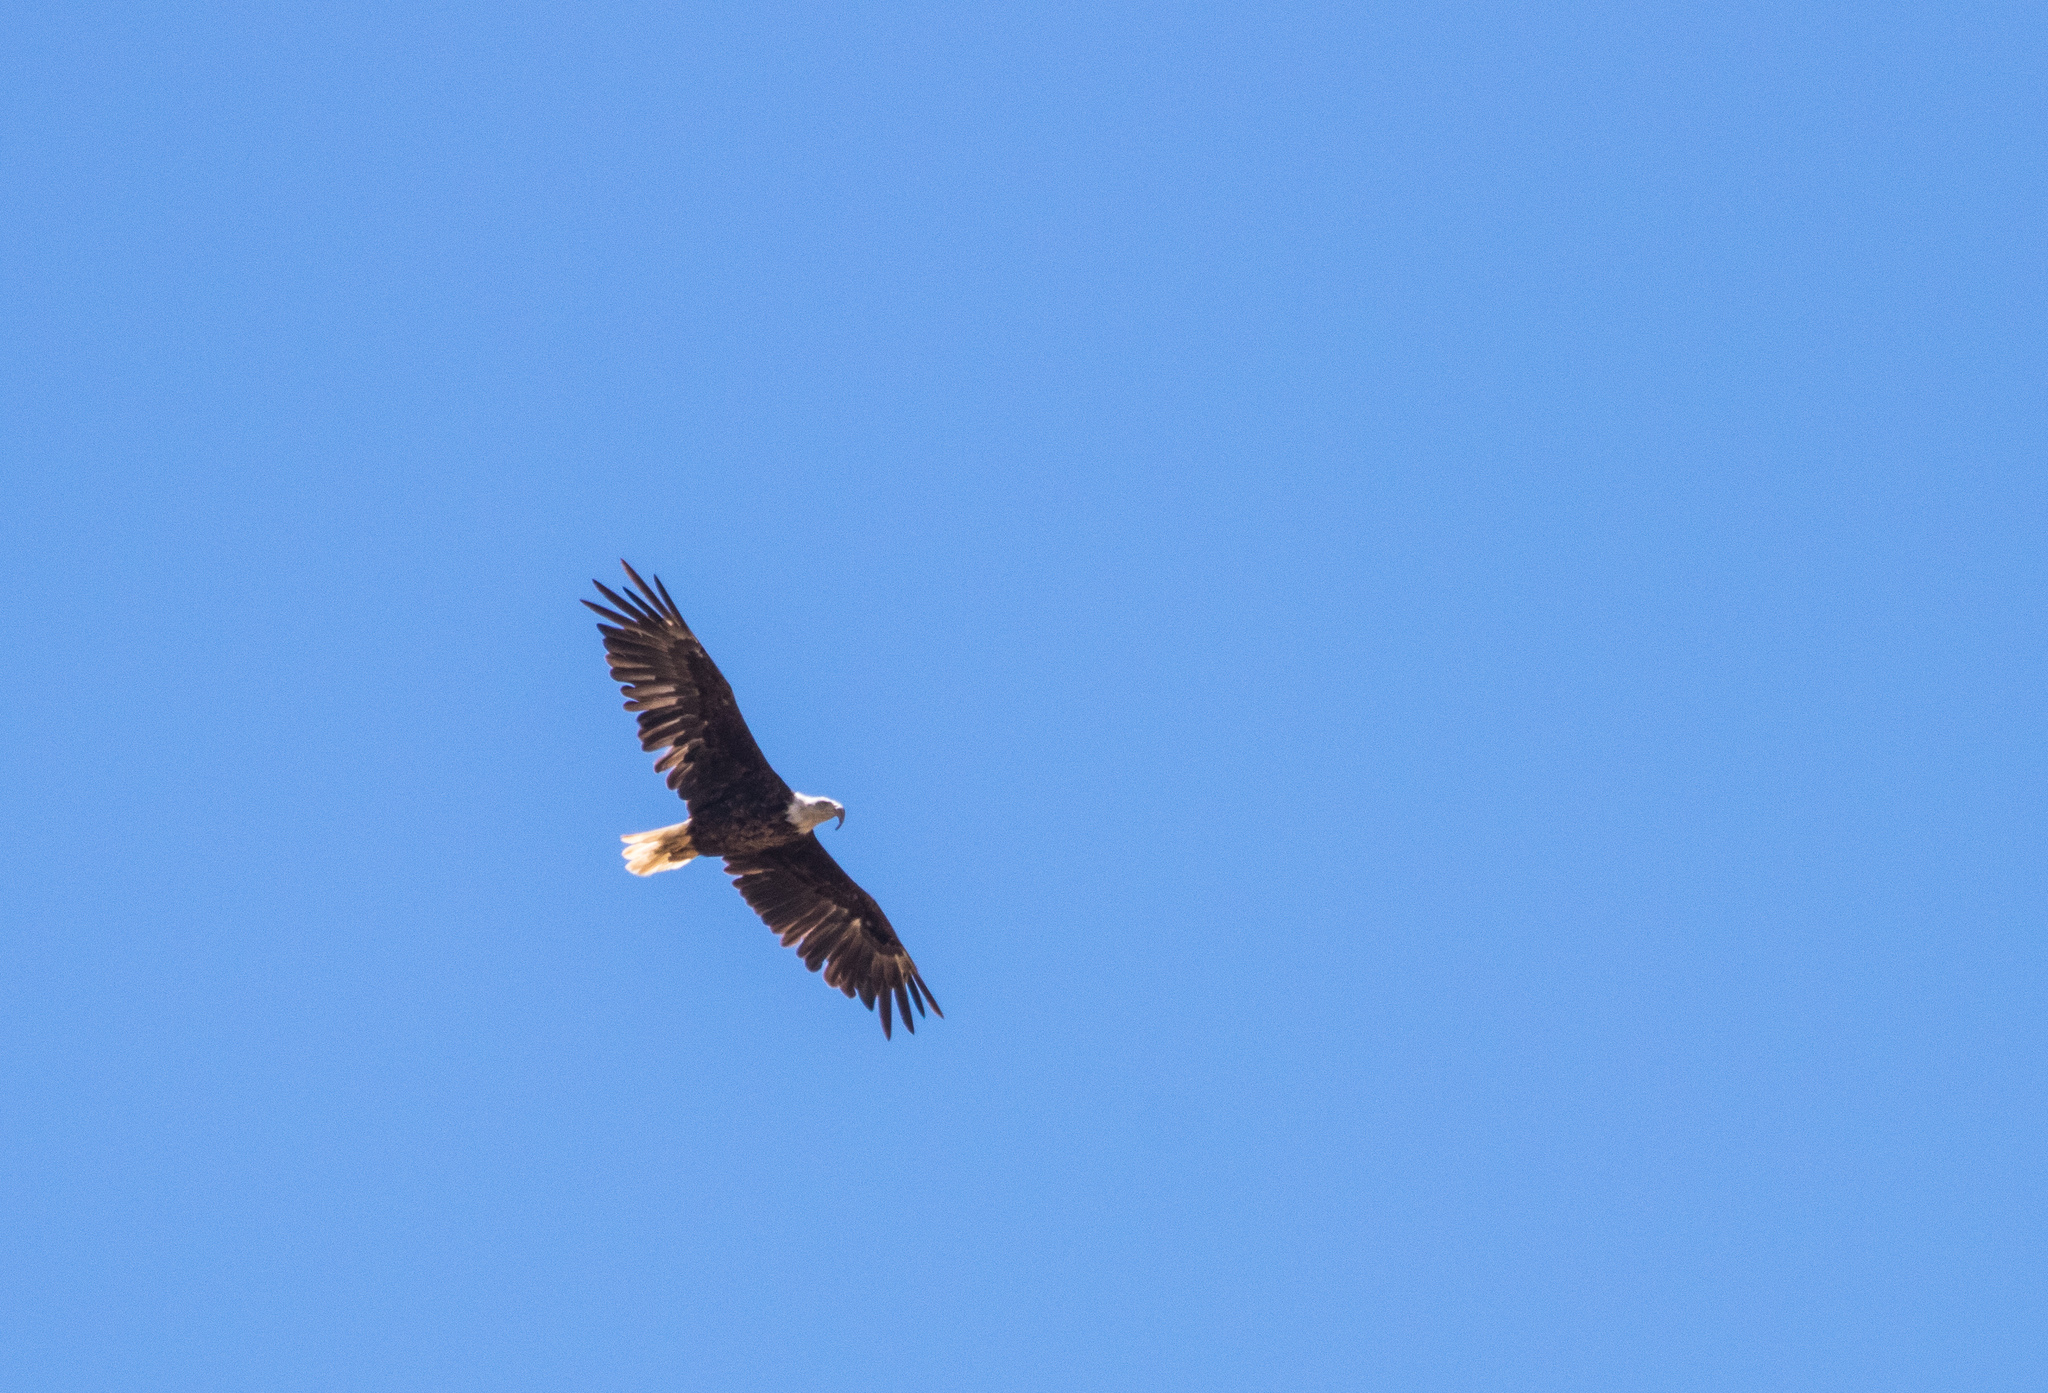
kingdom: Animalia
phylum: Chordata
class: Aves
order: Accipitriformes
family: Accipitridae
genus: Haliaeetus
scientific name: Haliaeetus leucocephalus
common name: Bald eagle
